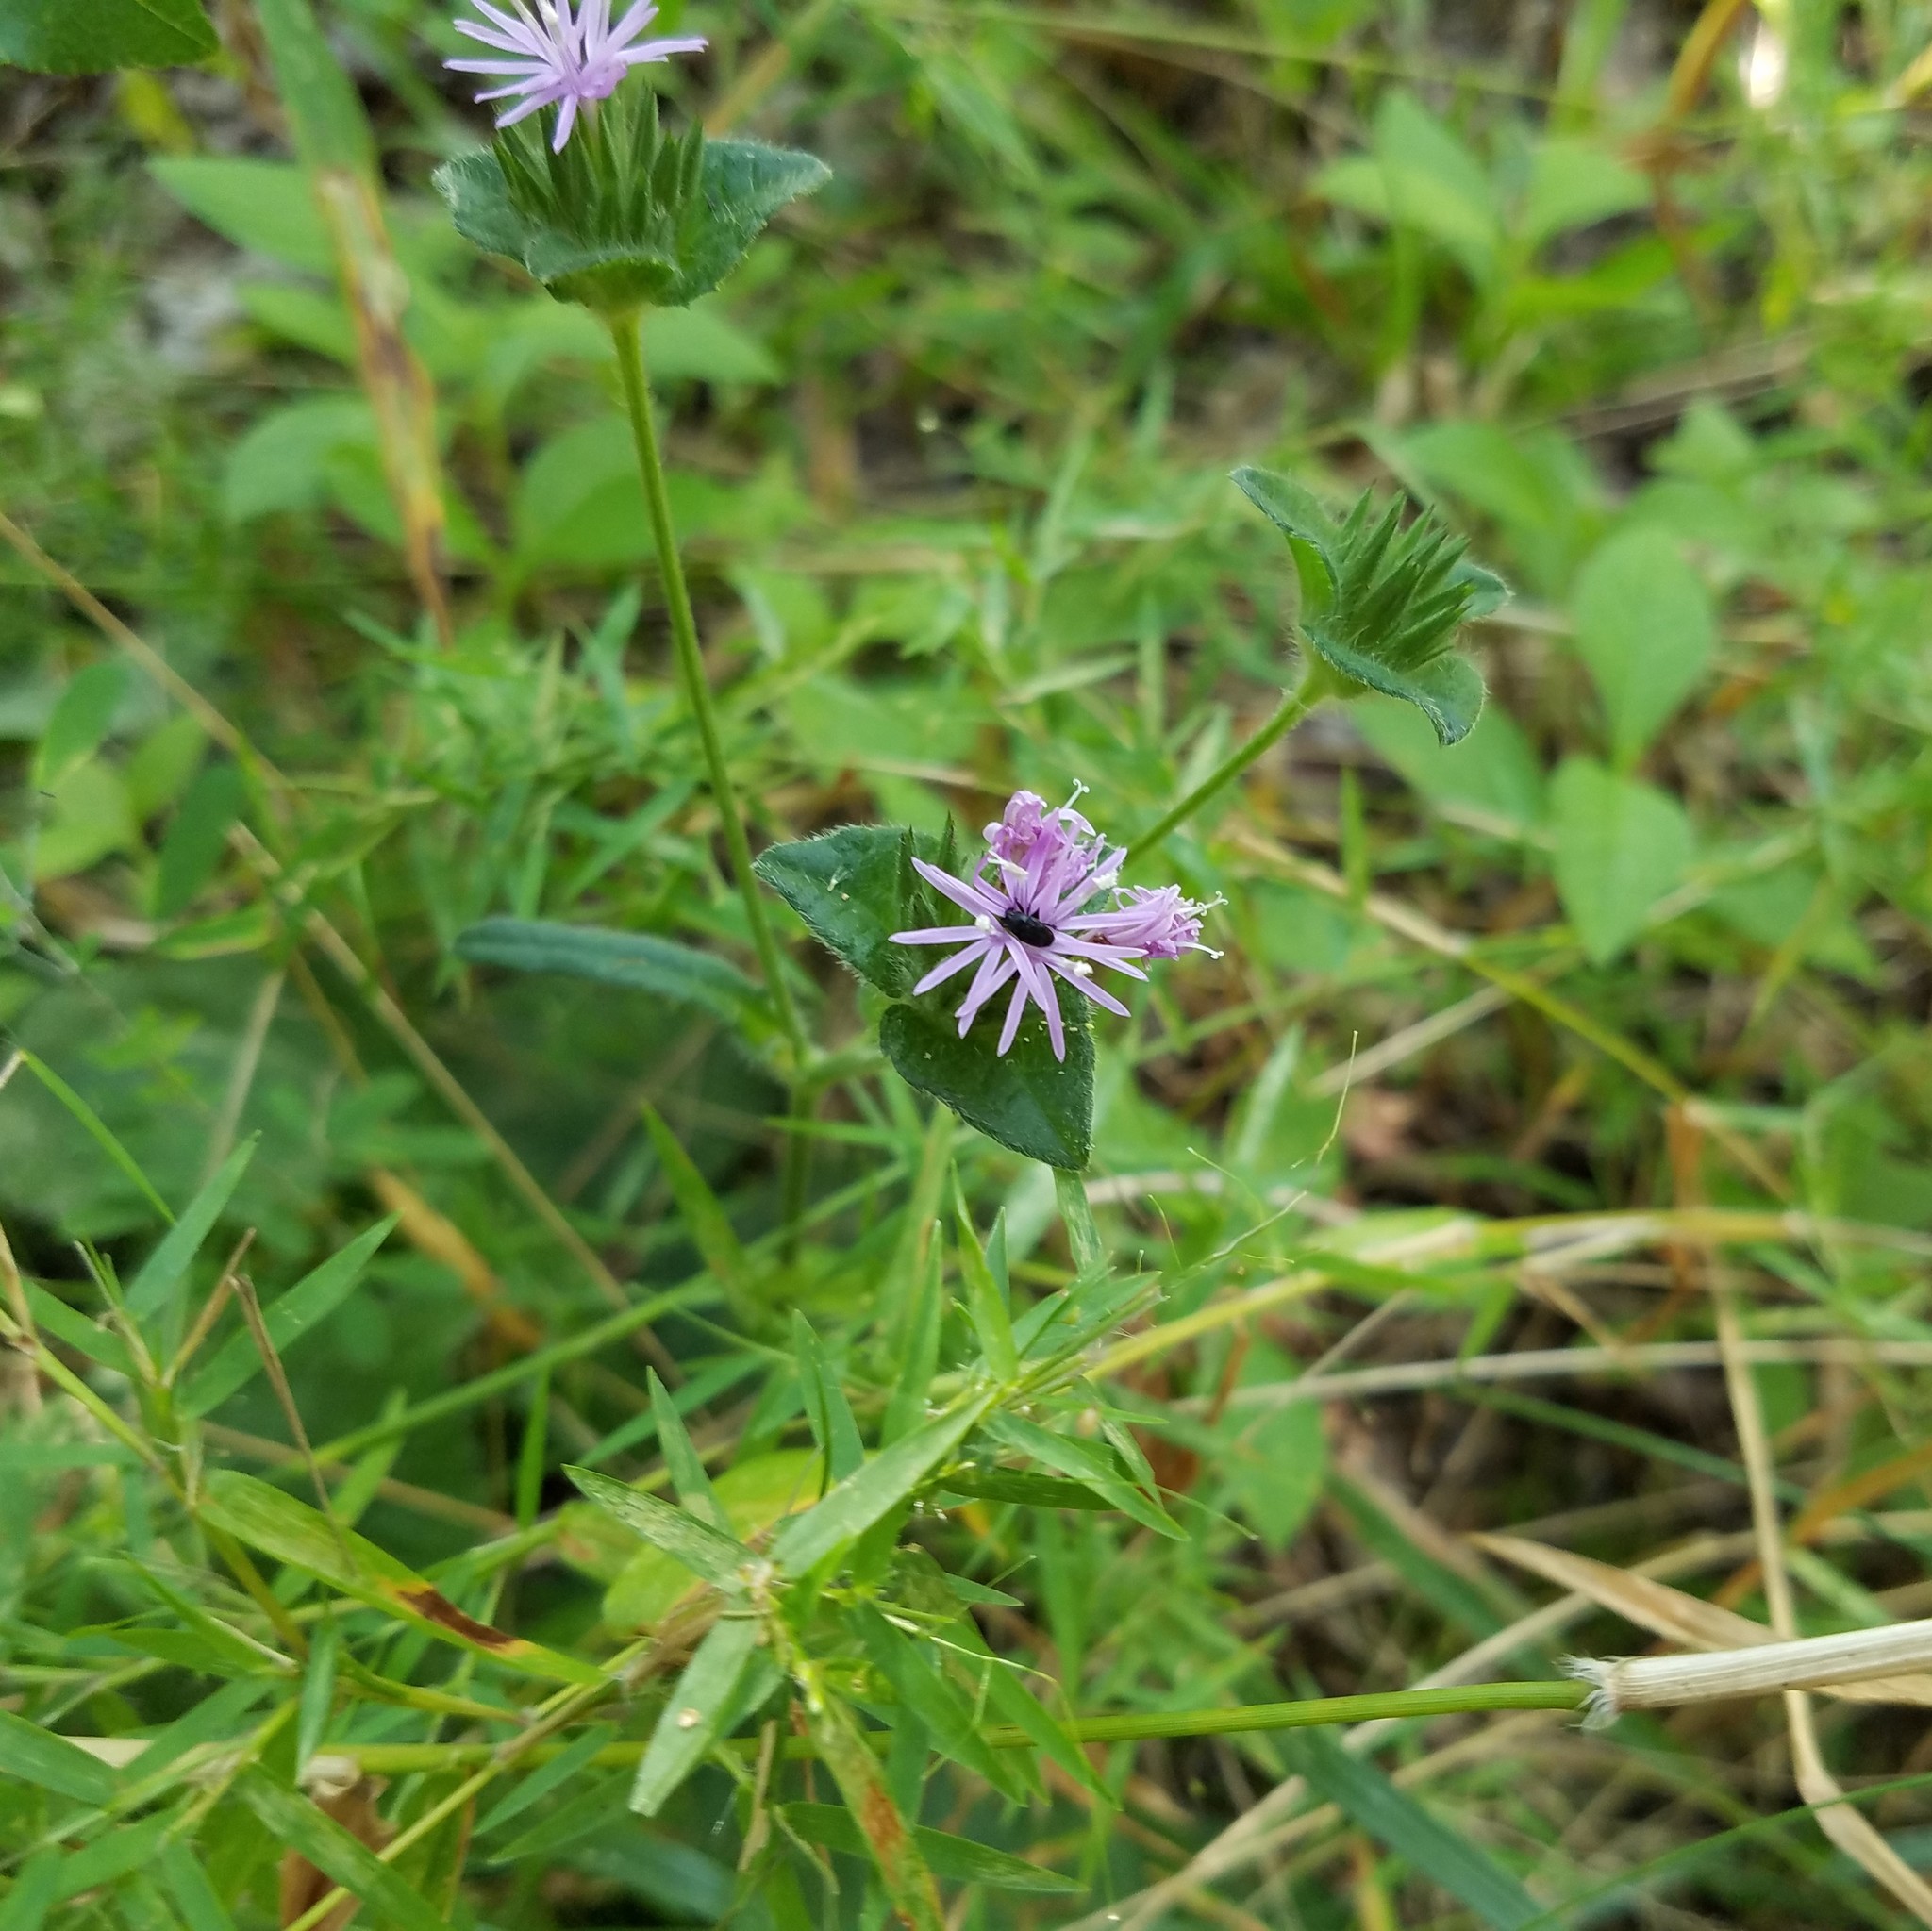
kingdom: Plantae
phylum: Tracheophyta
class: Magnoliopsida
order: Asterales
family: Asteraceae
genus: Elephantopus
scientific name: Elephantopus tomentosus
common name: Tobacco-weed
